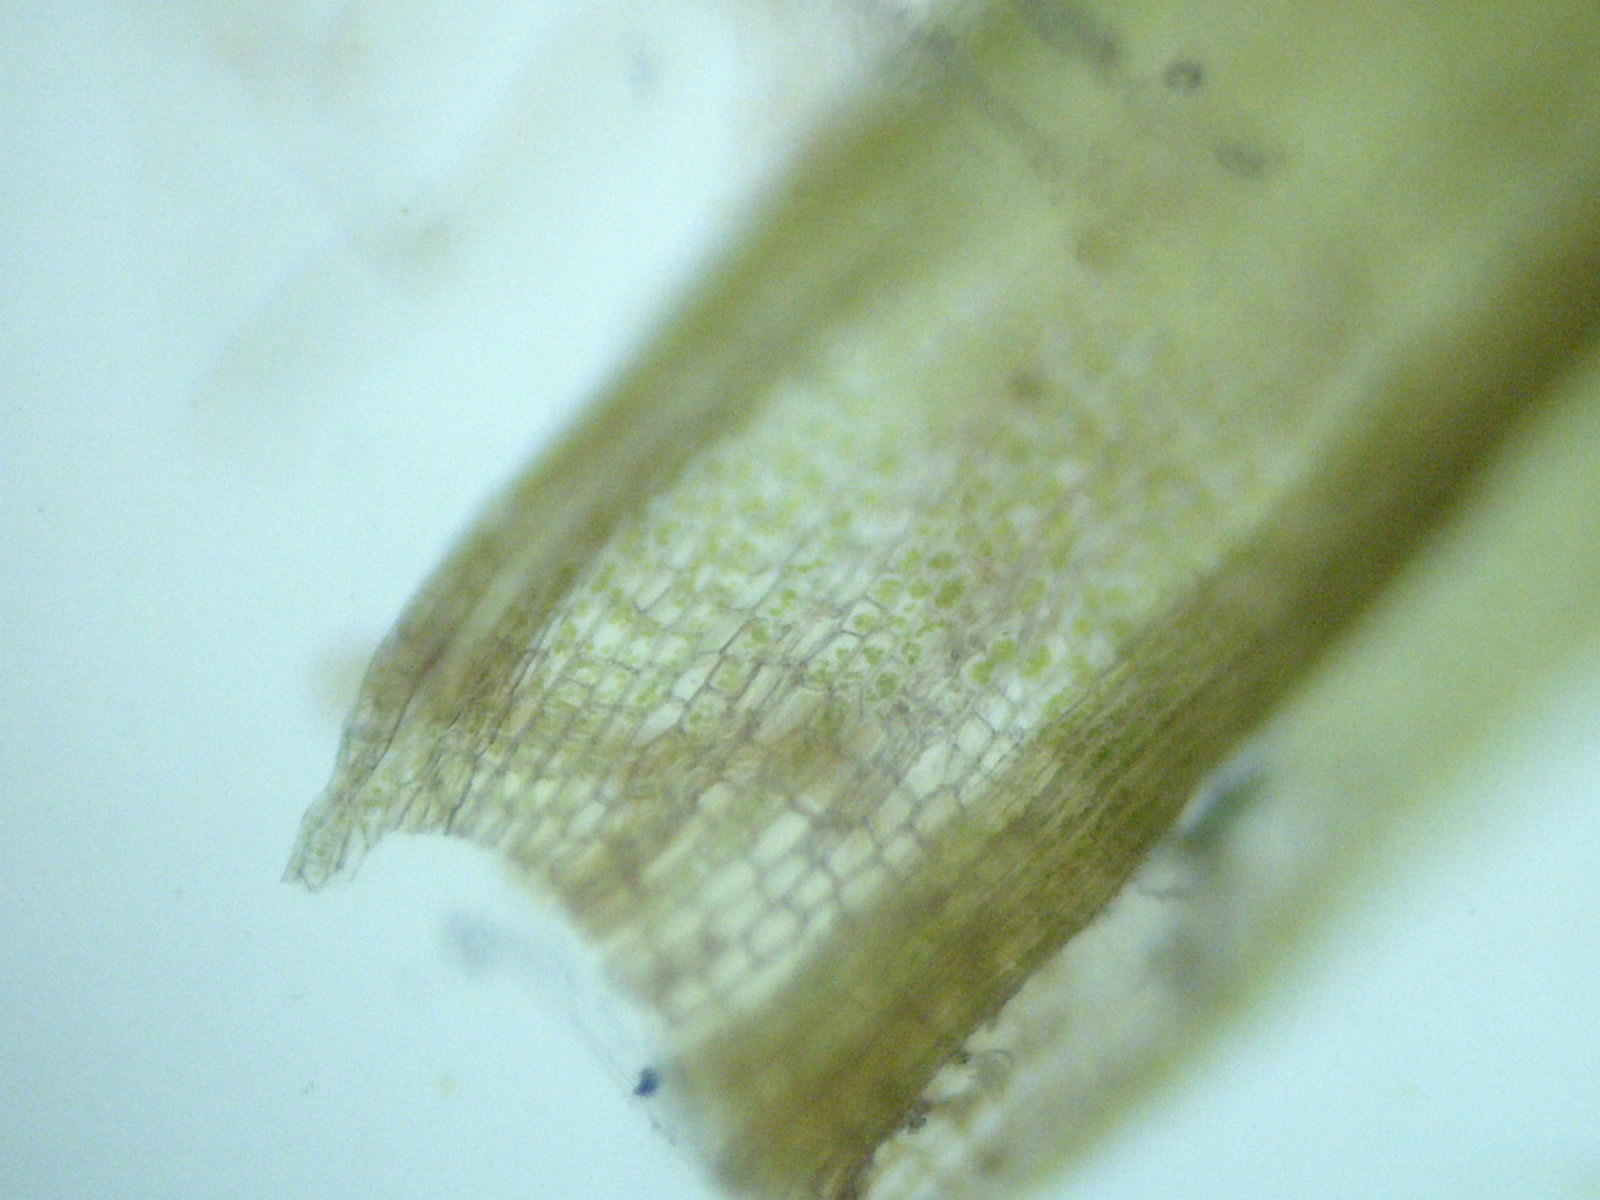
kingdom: Plantae
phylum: Bryophyta
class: Bryopsida
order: Pottiales
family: Pottiaceae
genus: Barbula
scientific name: Barbula unguiculata
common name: Prickly beard moss
